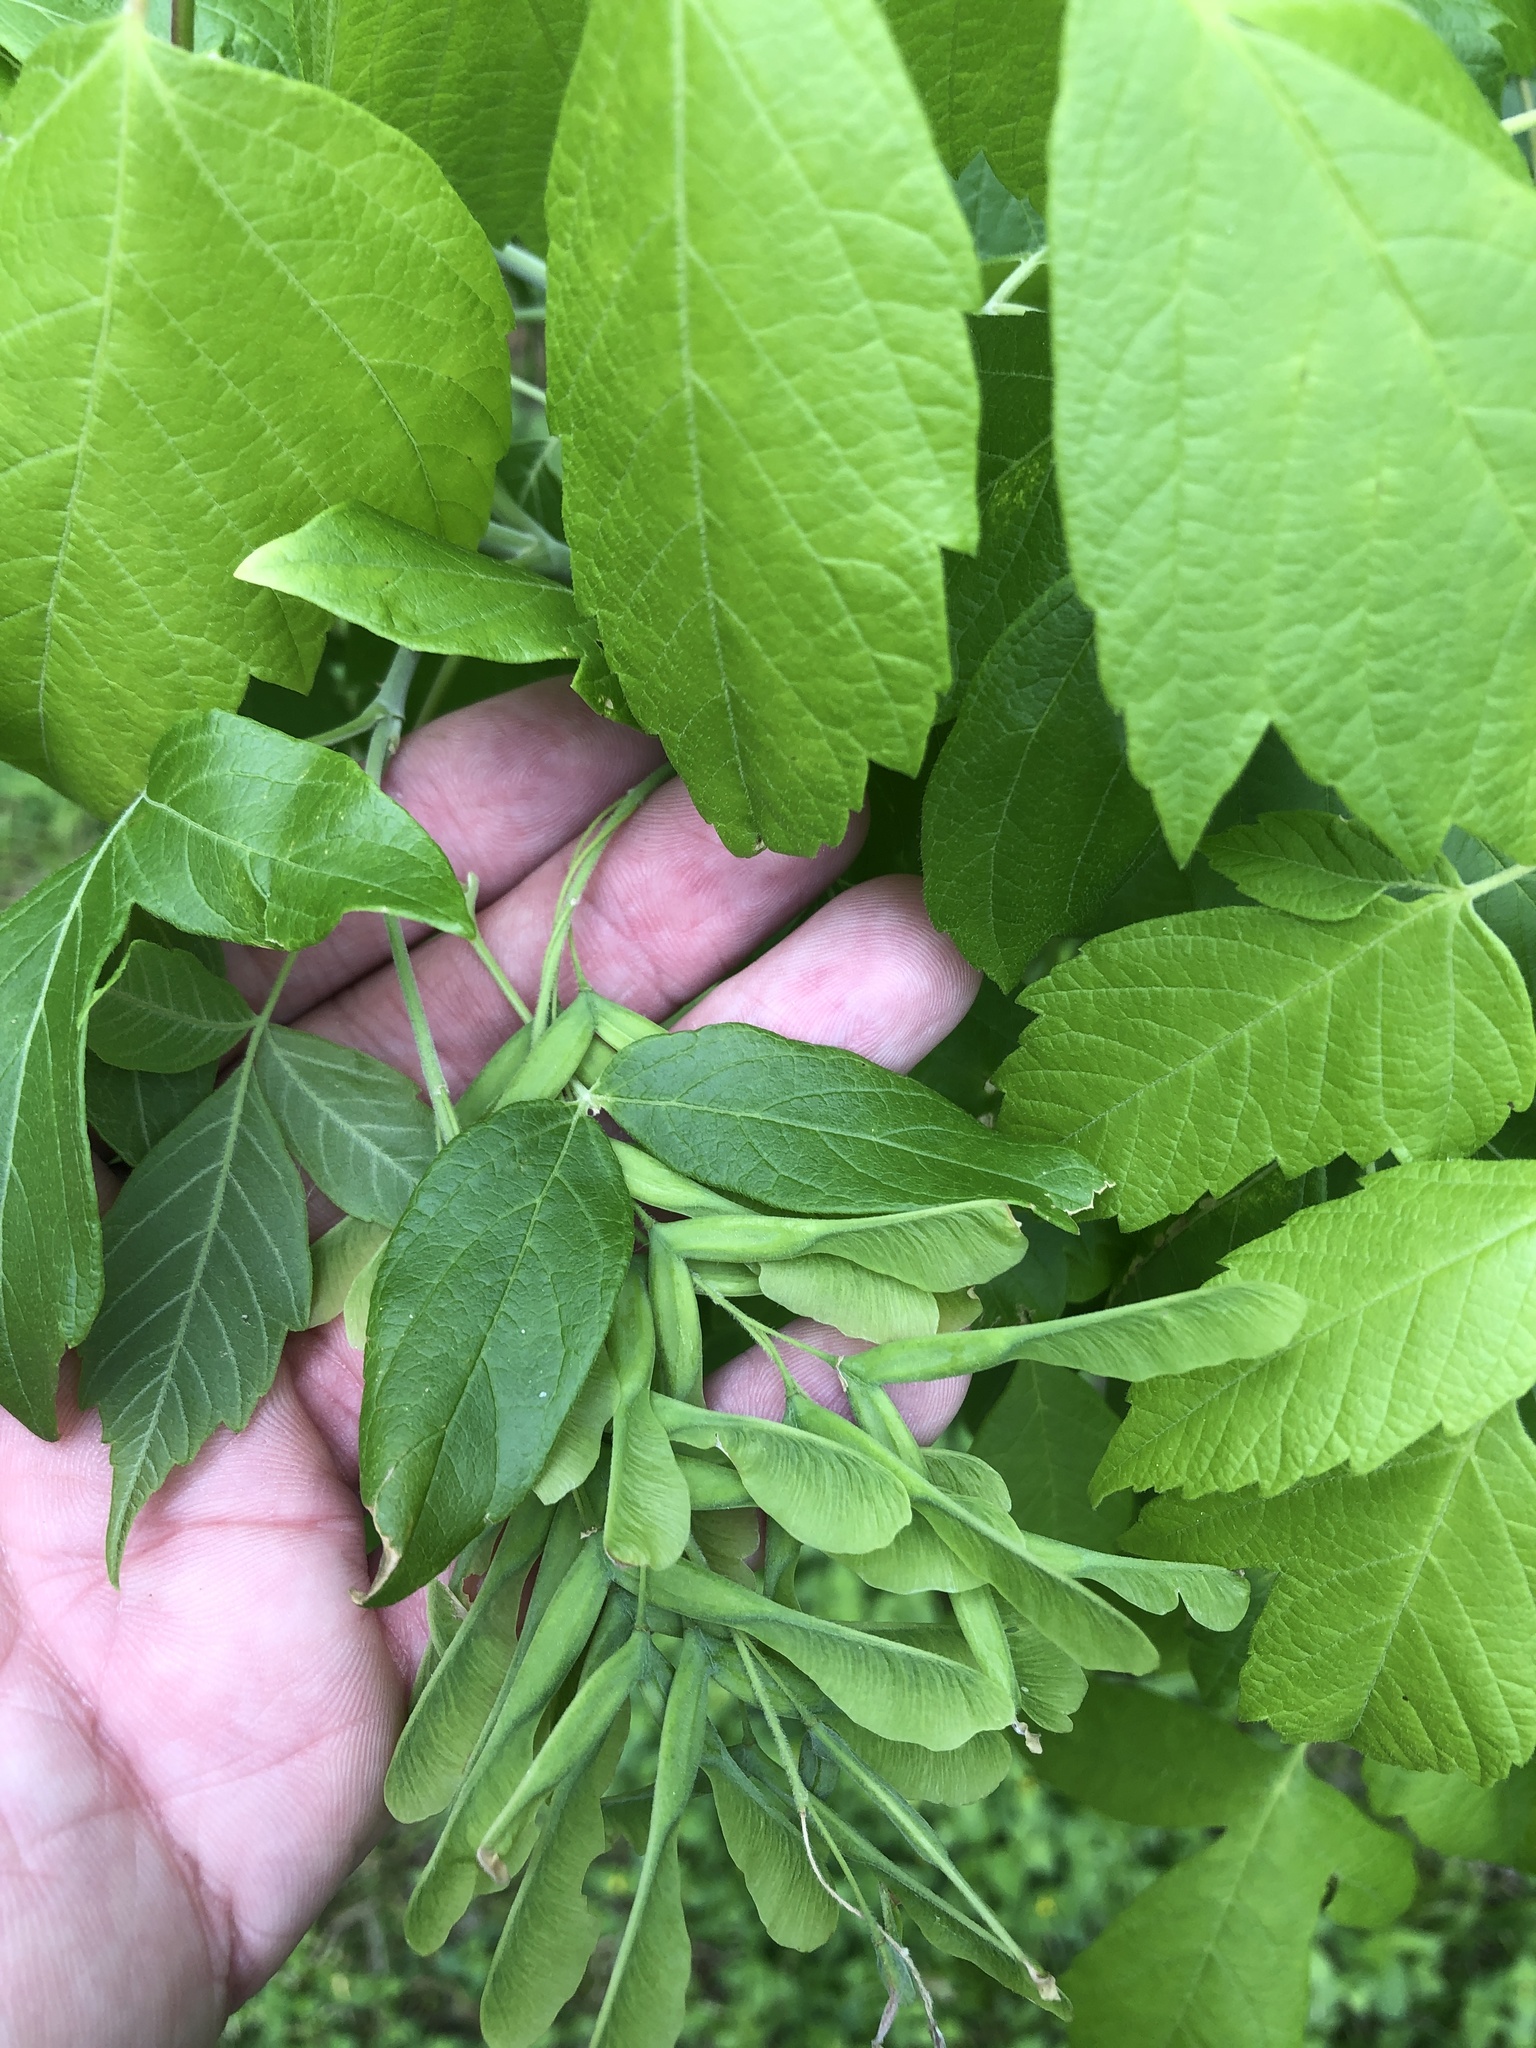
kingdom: Plantae
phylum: Tracheophyta
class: Magnoliopsida
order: Sapindales
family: Sapindaceae
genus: Acer
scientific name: Acer negundo
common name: Ashleaf maple
